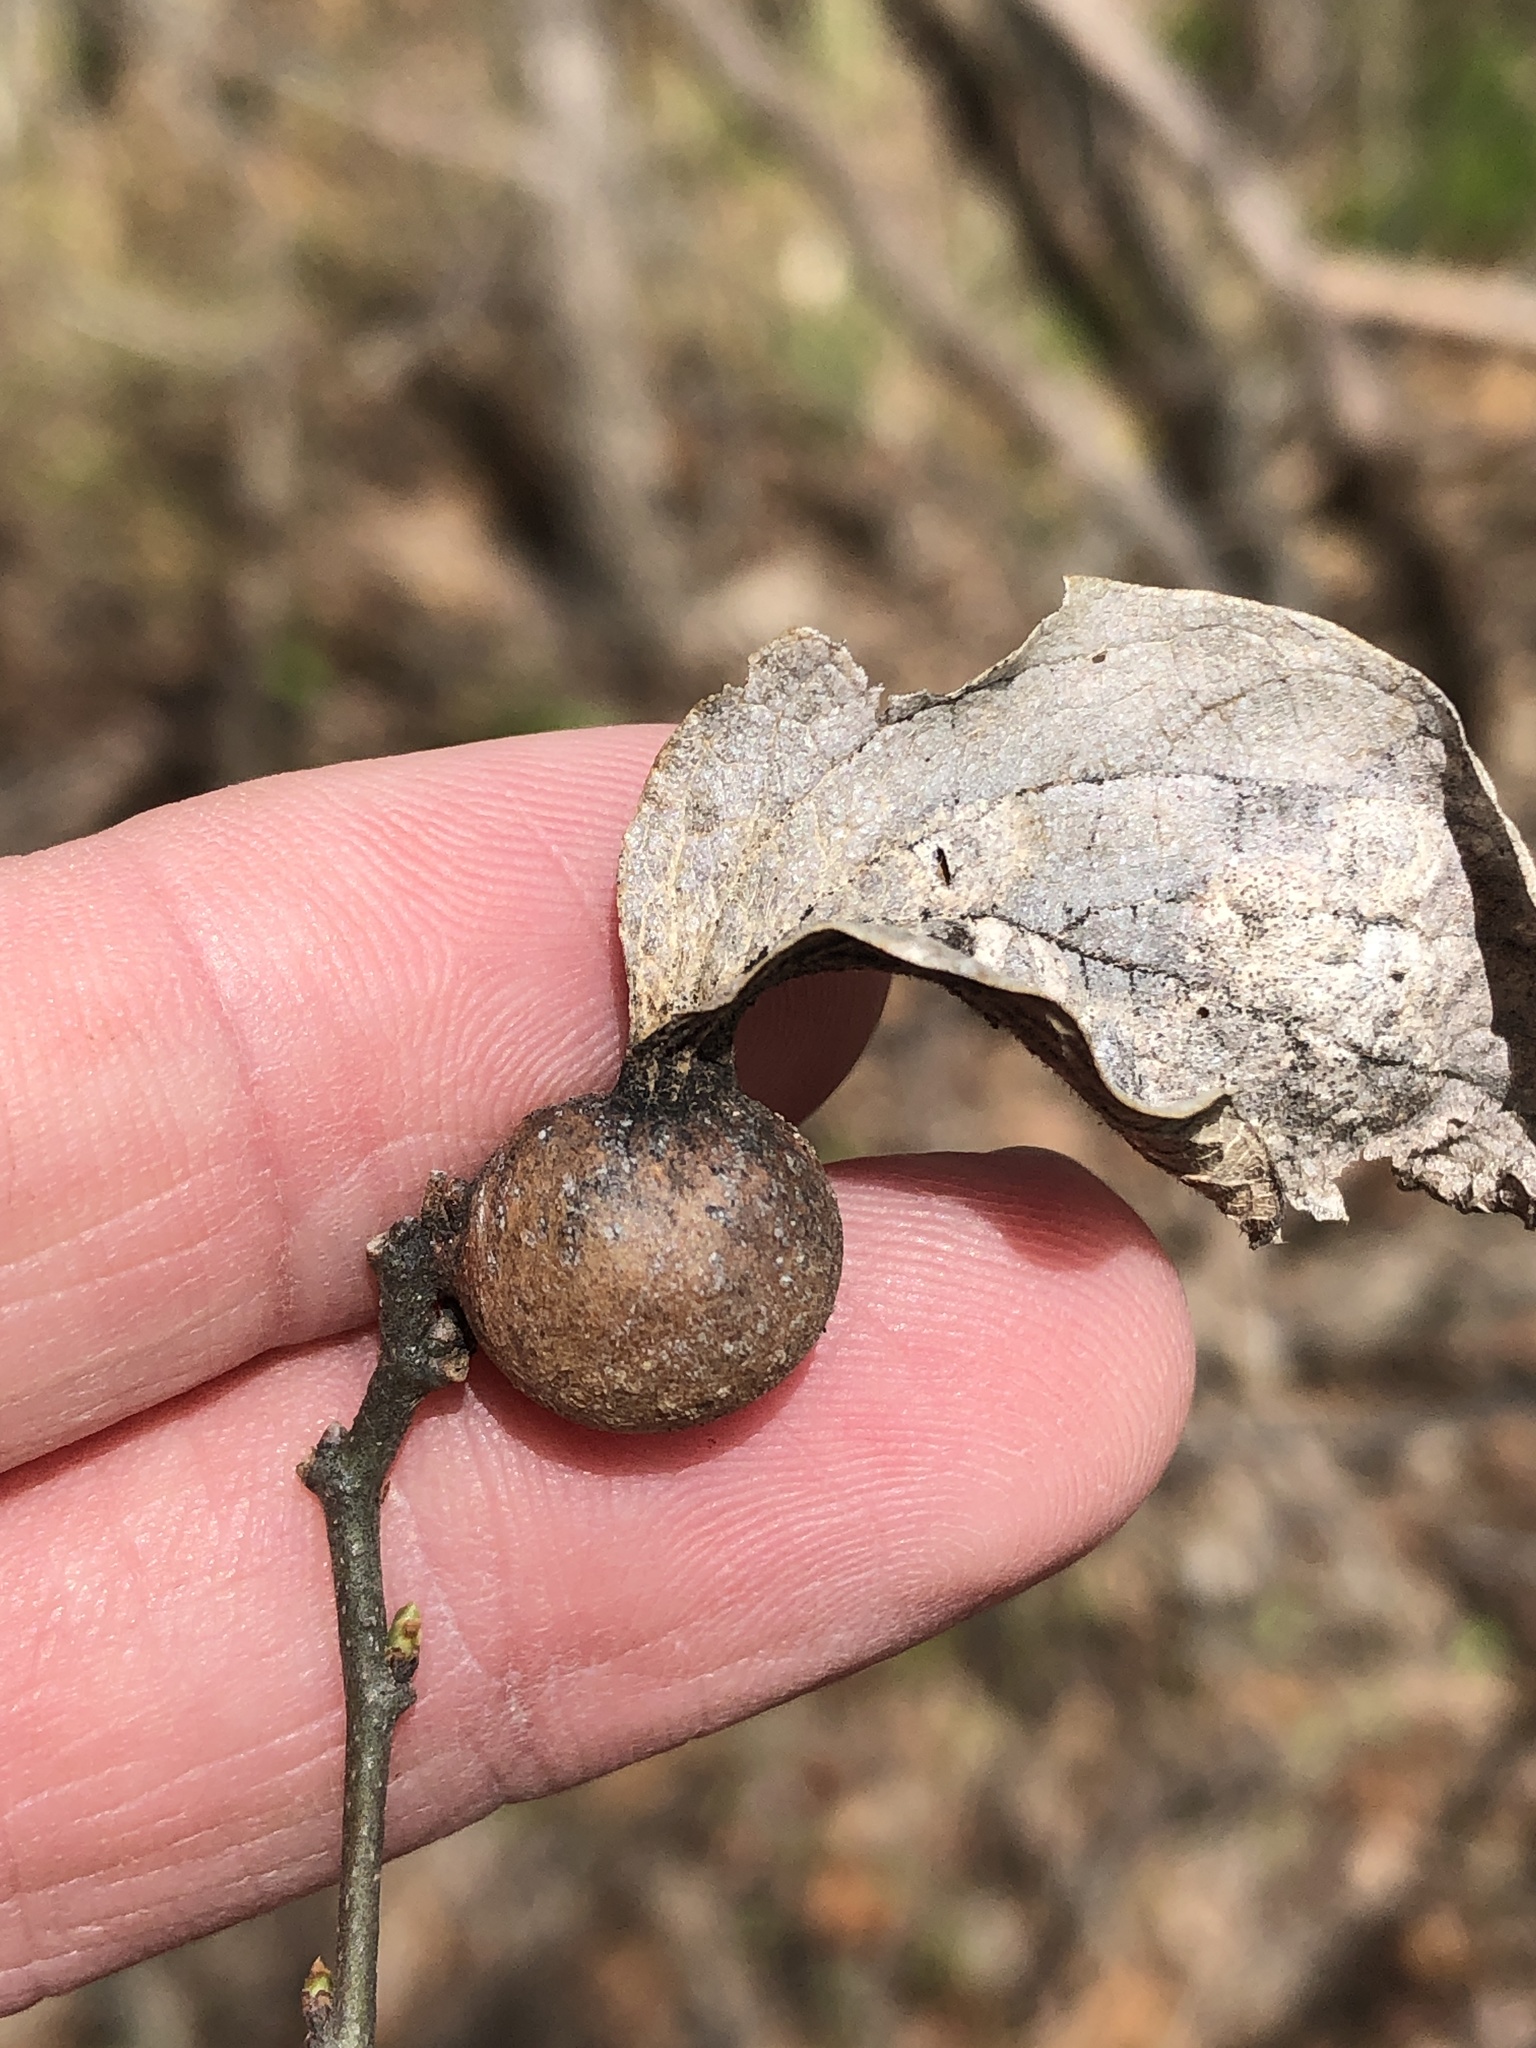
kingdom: Animalia
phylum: Arthropoda
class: Insecta
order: Hemiptera
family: Aphalaridae
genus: Pachypsylla
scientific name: Pachypsylla venusta
